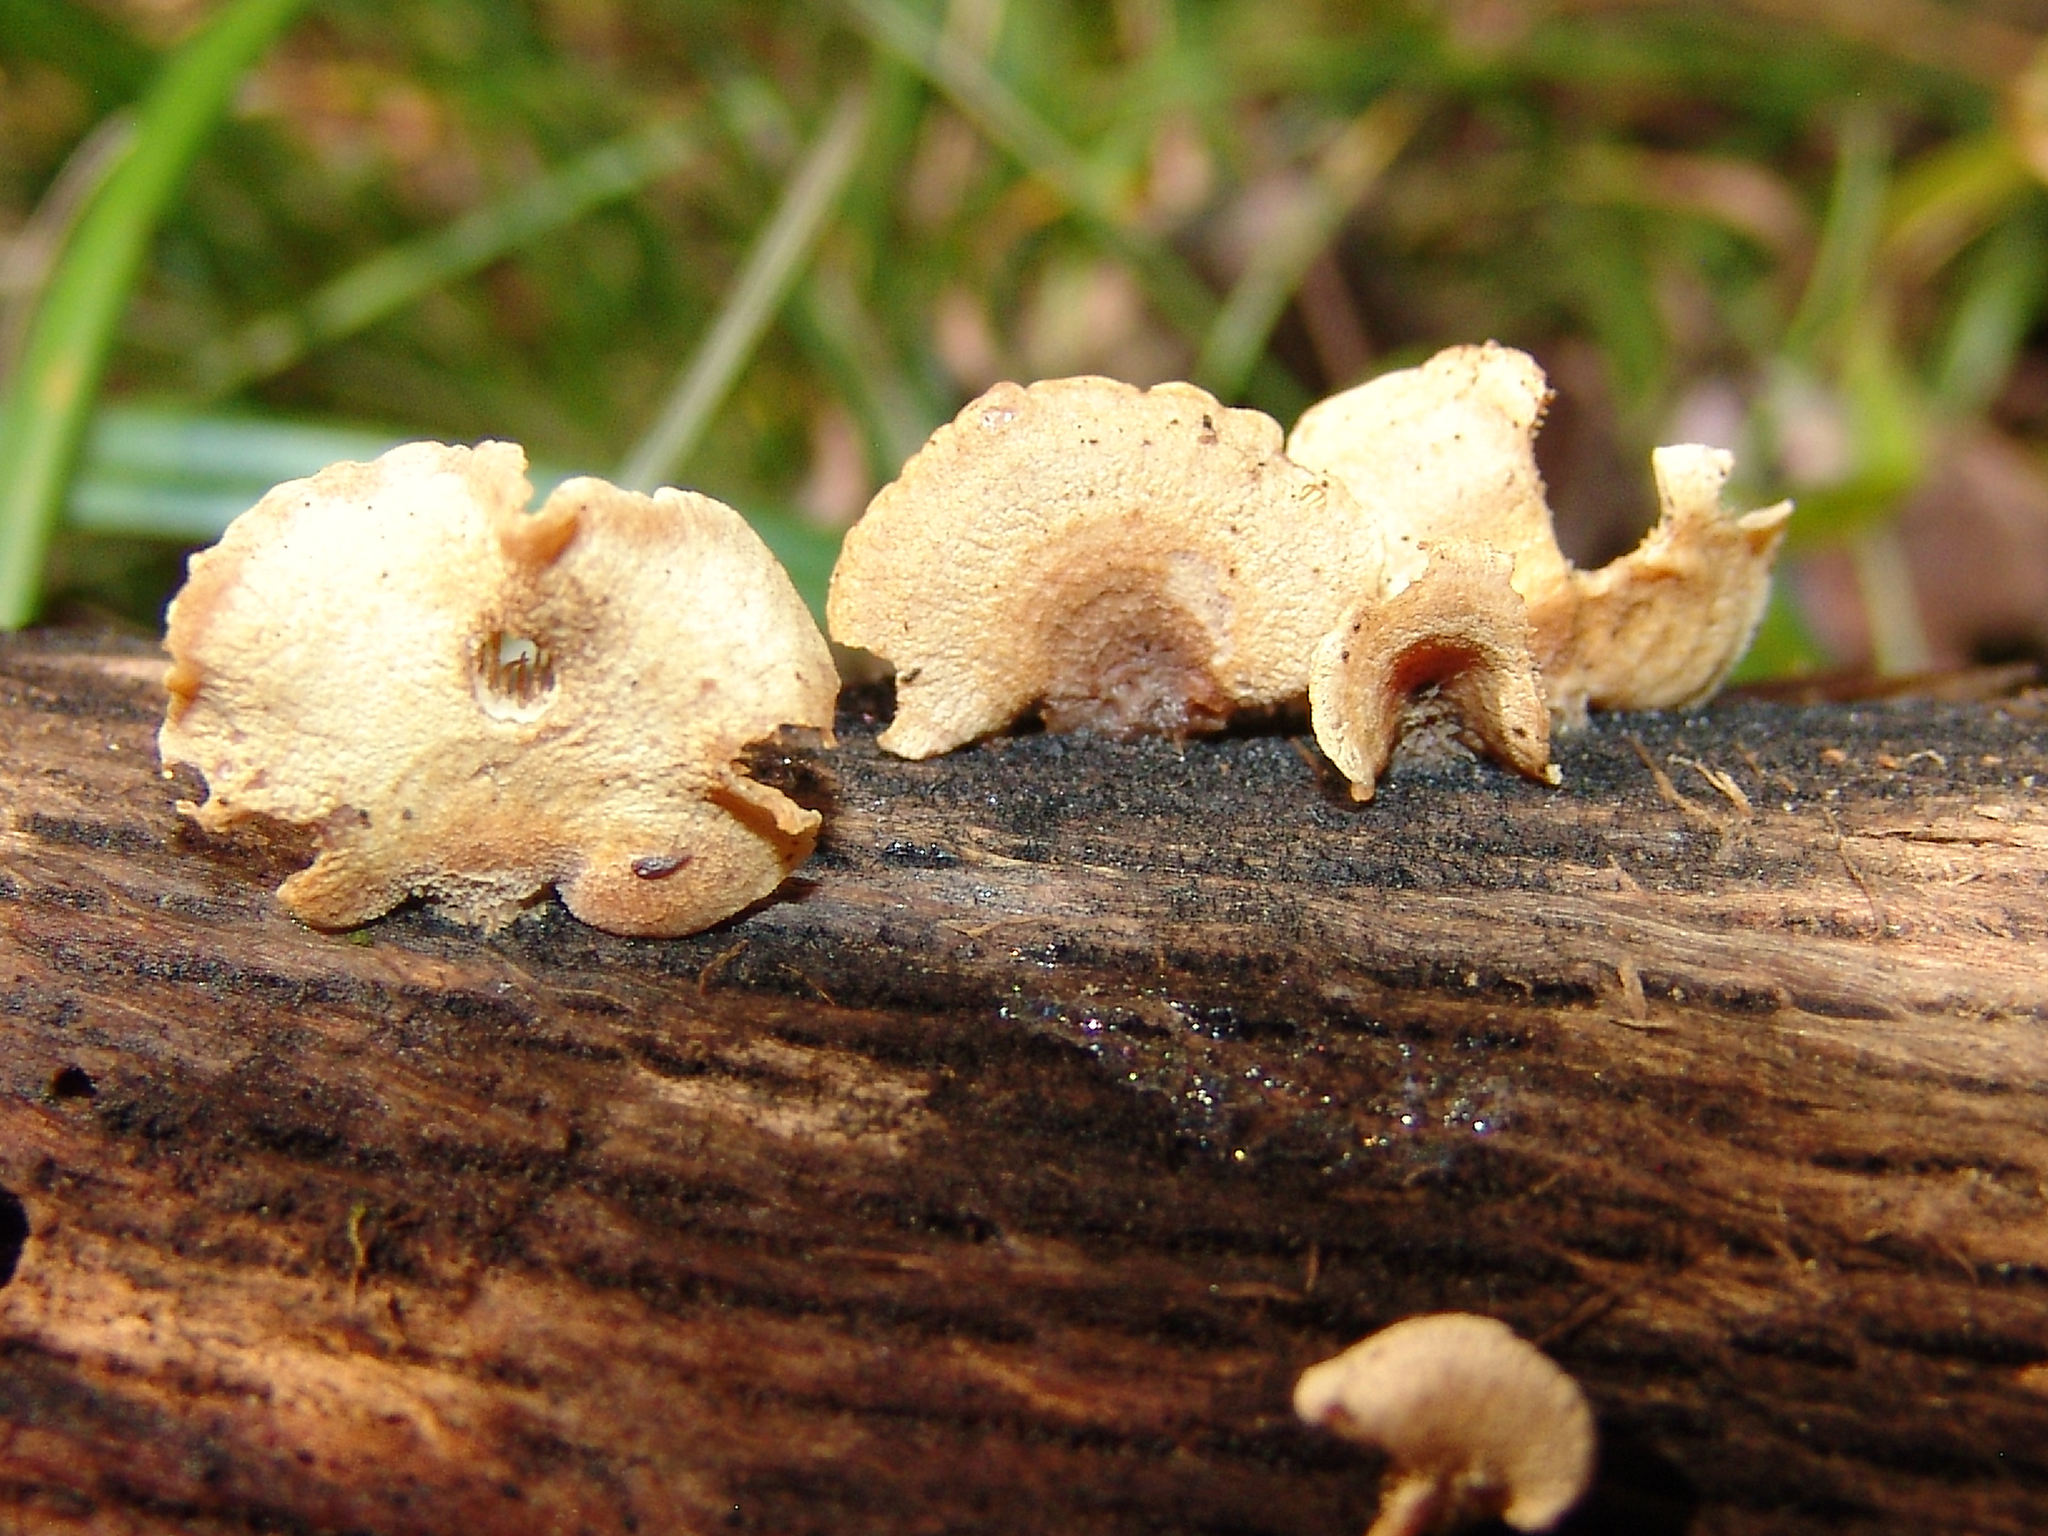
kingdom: Fungi
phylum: Basidiomycota
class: Agaricomycetes
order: Agaricales
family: Mycenaceae
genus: Panellus
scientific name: Panellus stipticus
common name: Bitter oysterling
